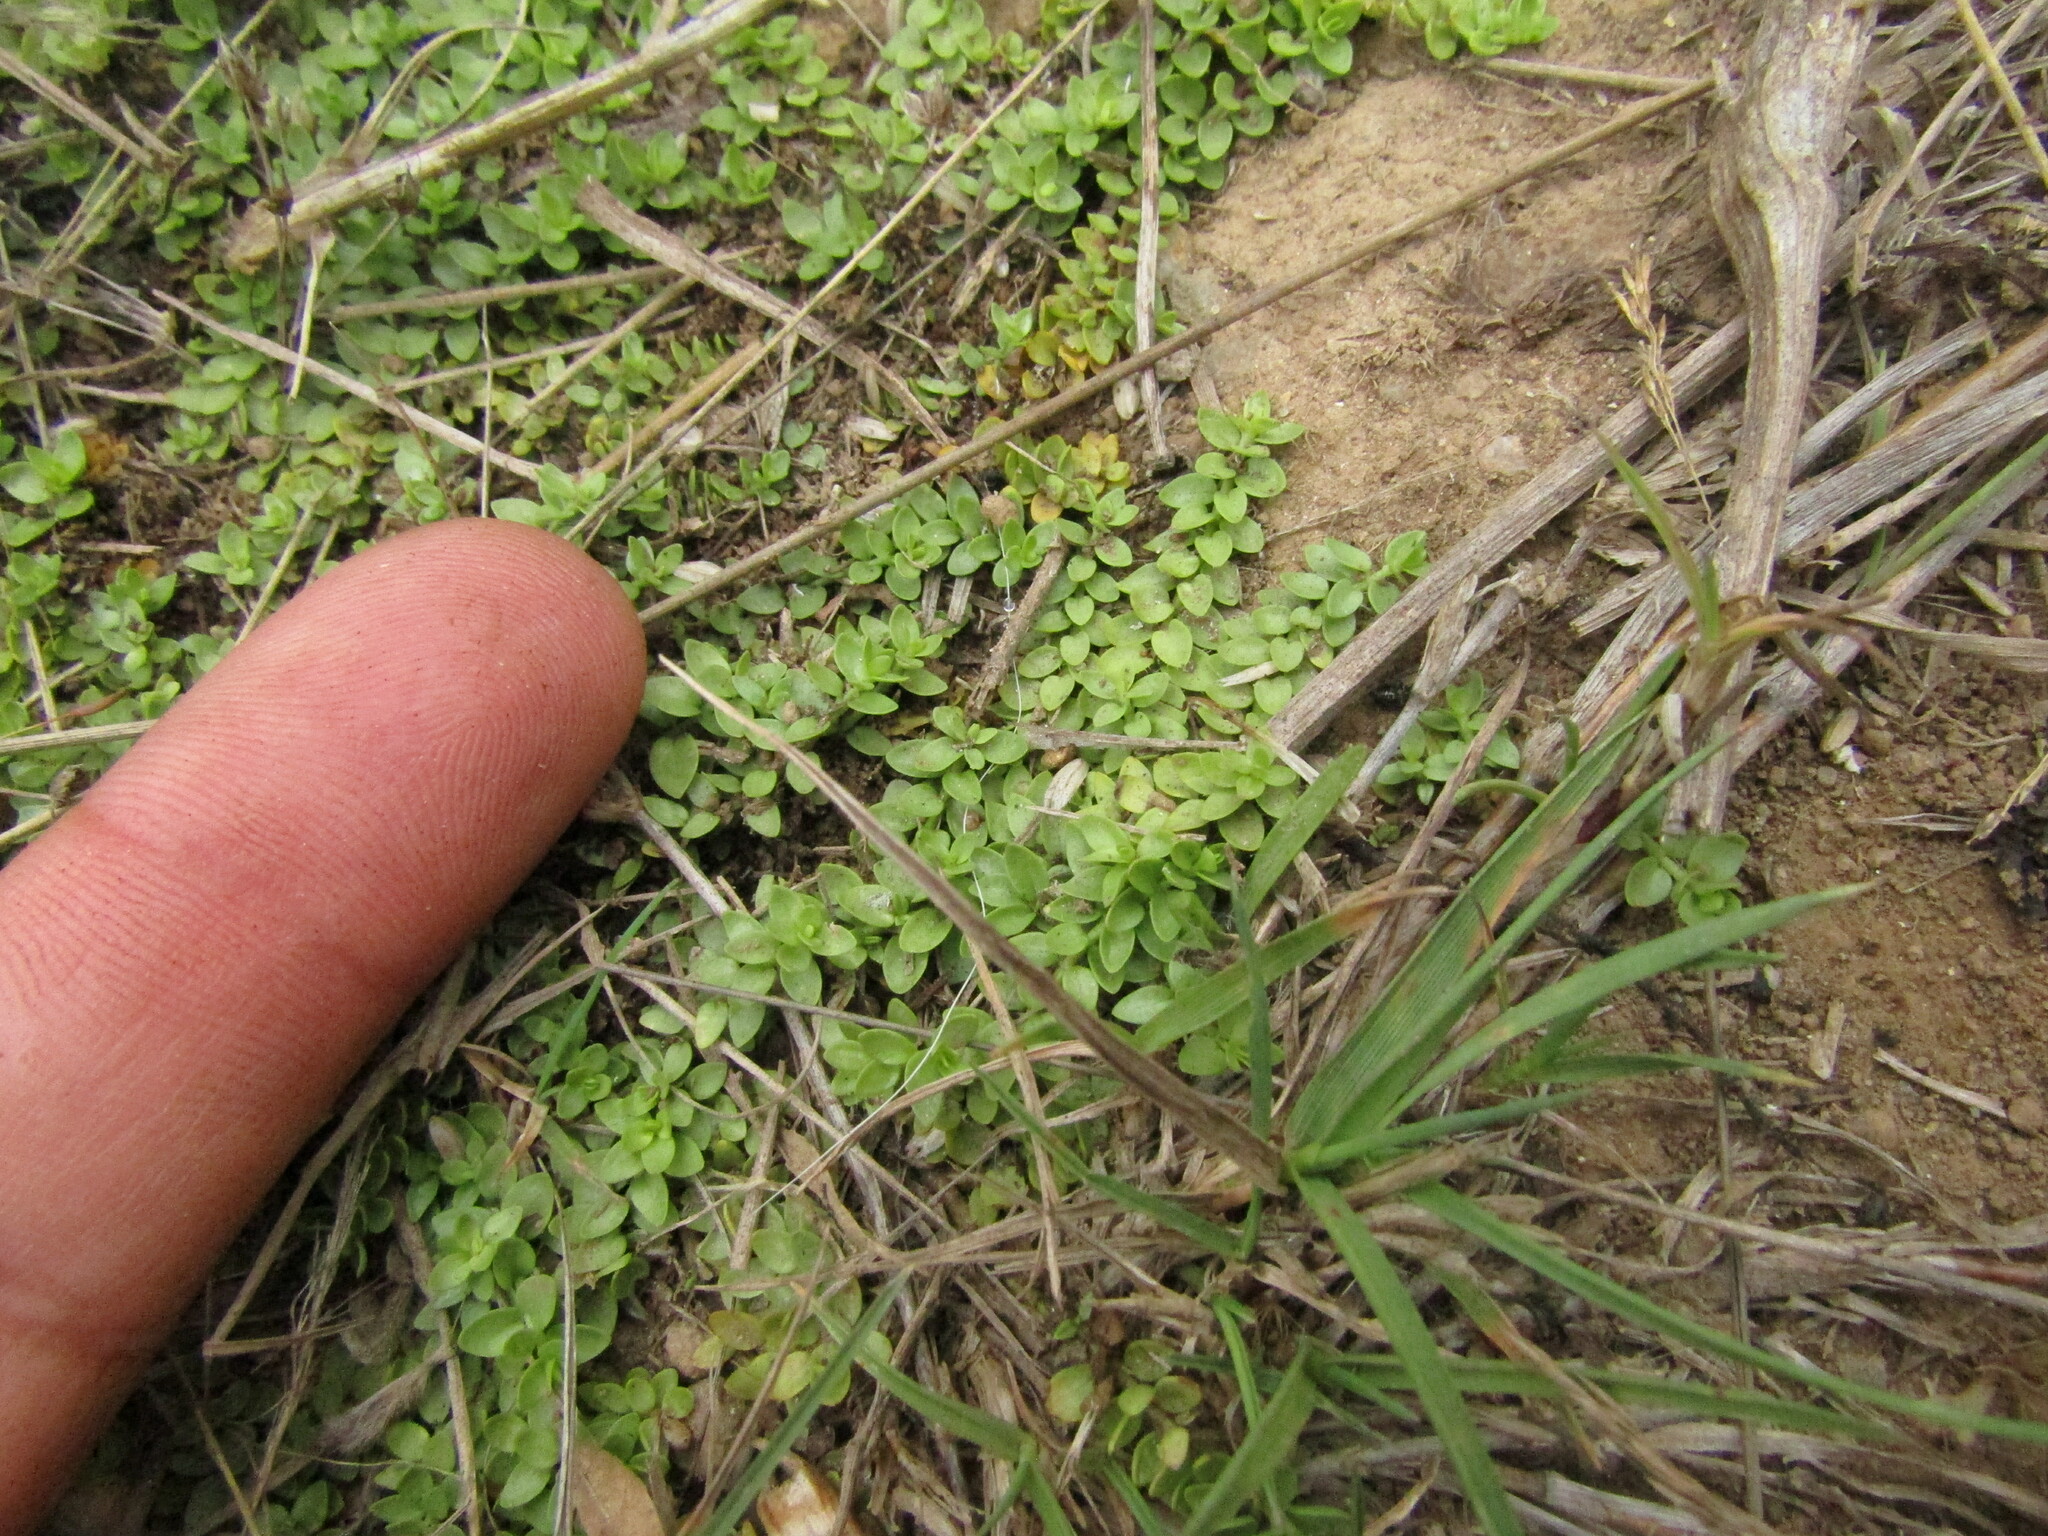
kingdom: Plantae
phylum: Tracheophyta
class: Magnoliopsida
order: Ericales
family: Primulaceae
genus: Lysimachia
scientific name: Lysimachia amoena
